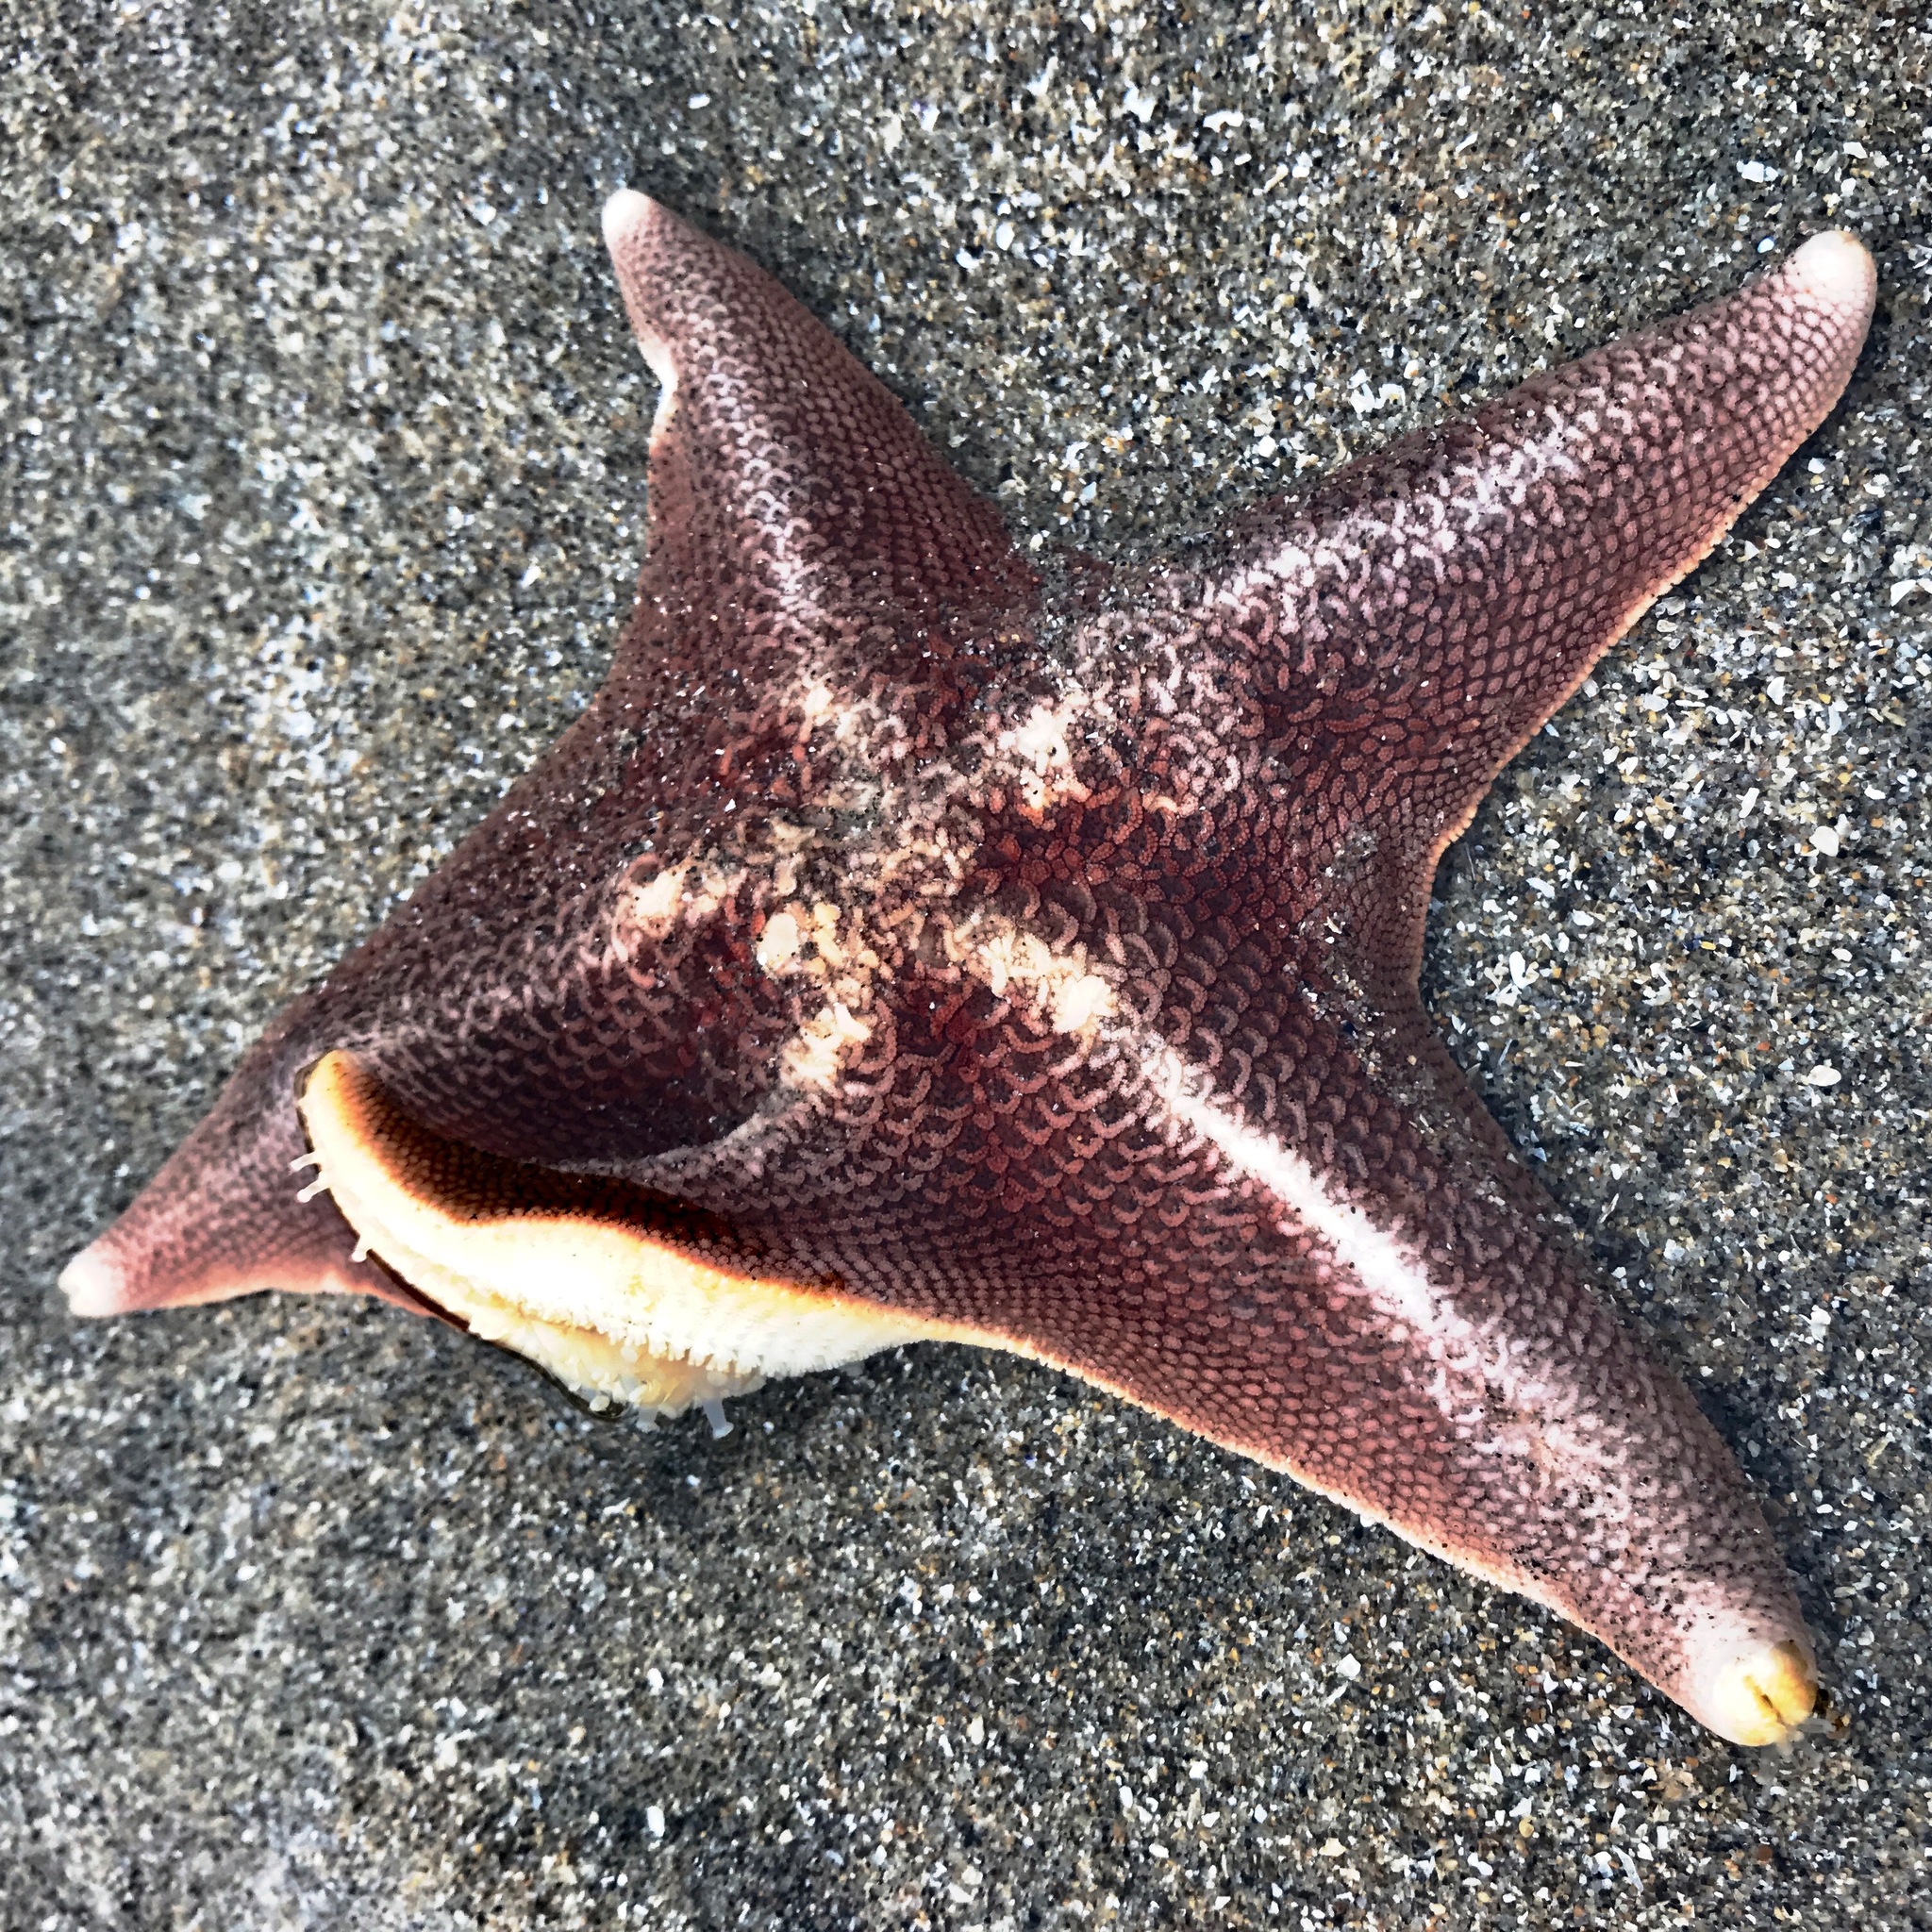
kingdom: Animalia
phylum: Echinodermata
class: Asteroidea
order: Valvatida
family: Asterinidae
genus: Patiria
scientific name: Patiria miniata
